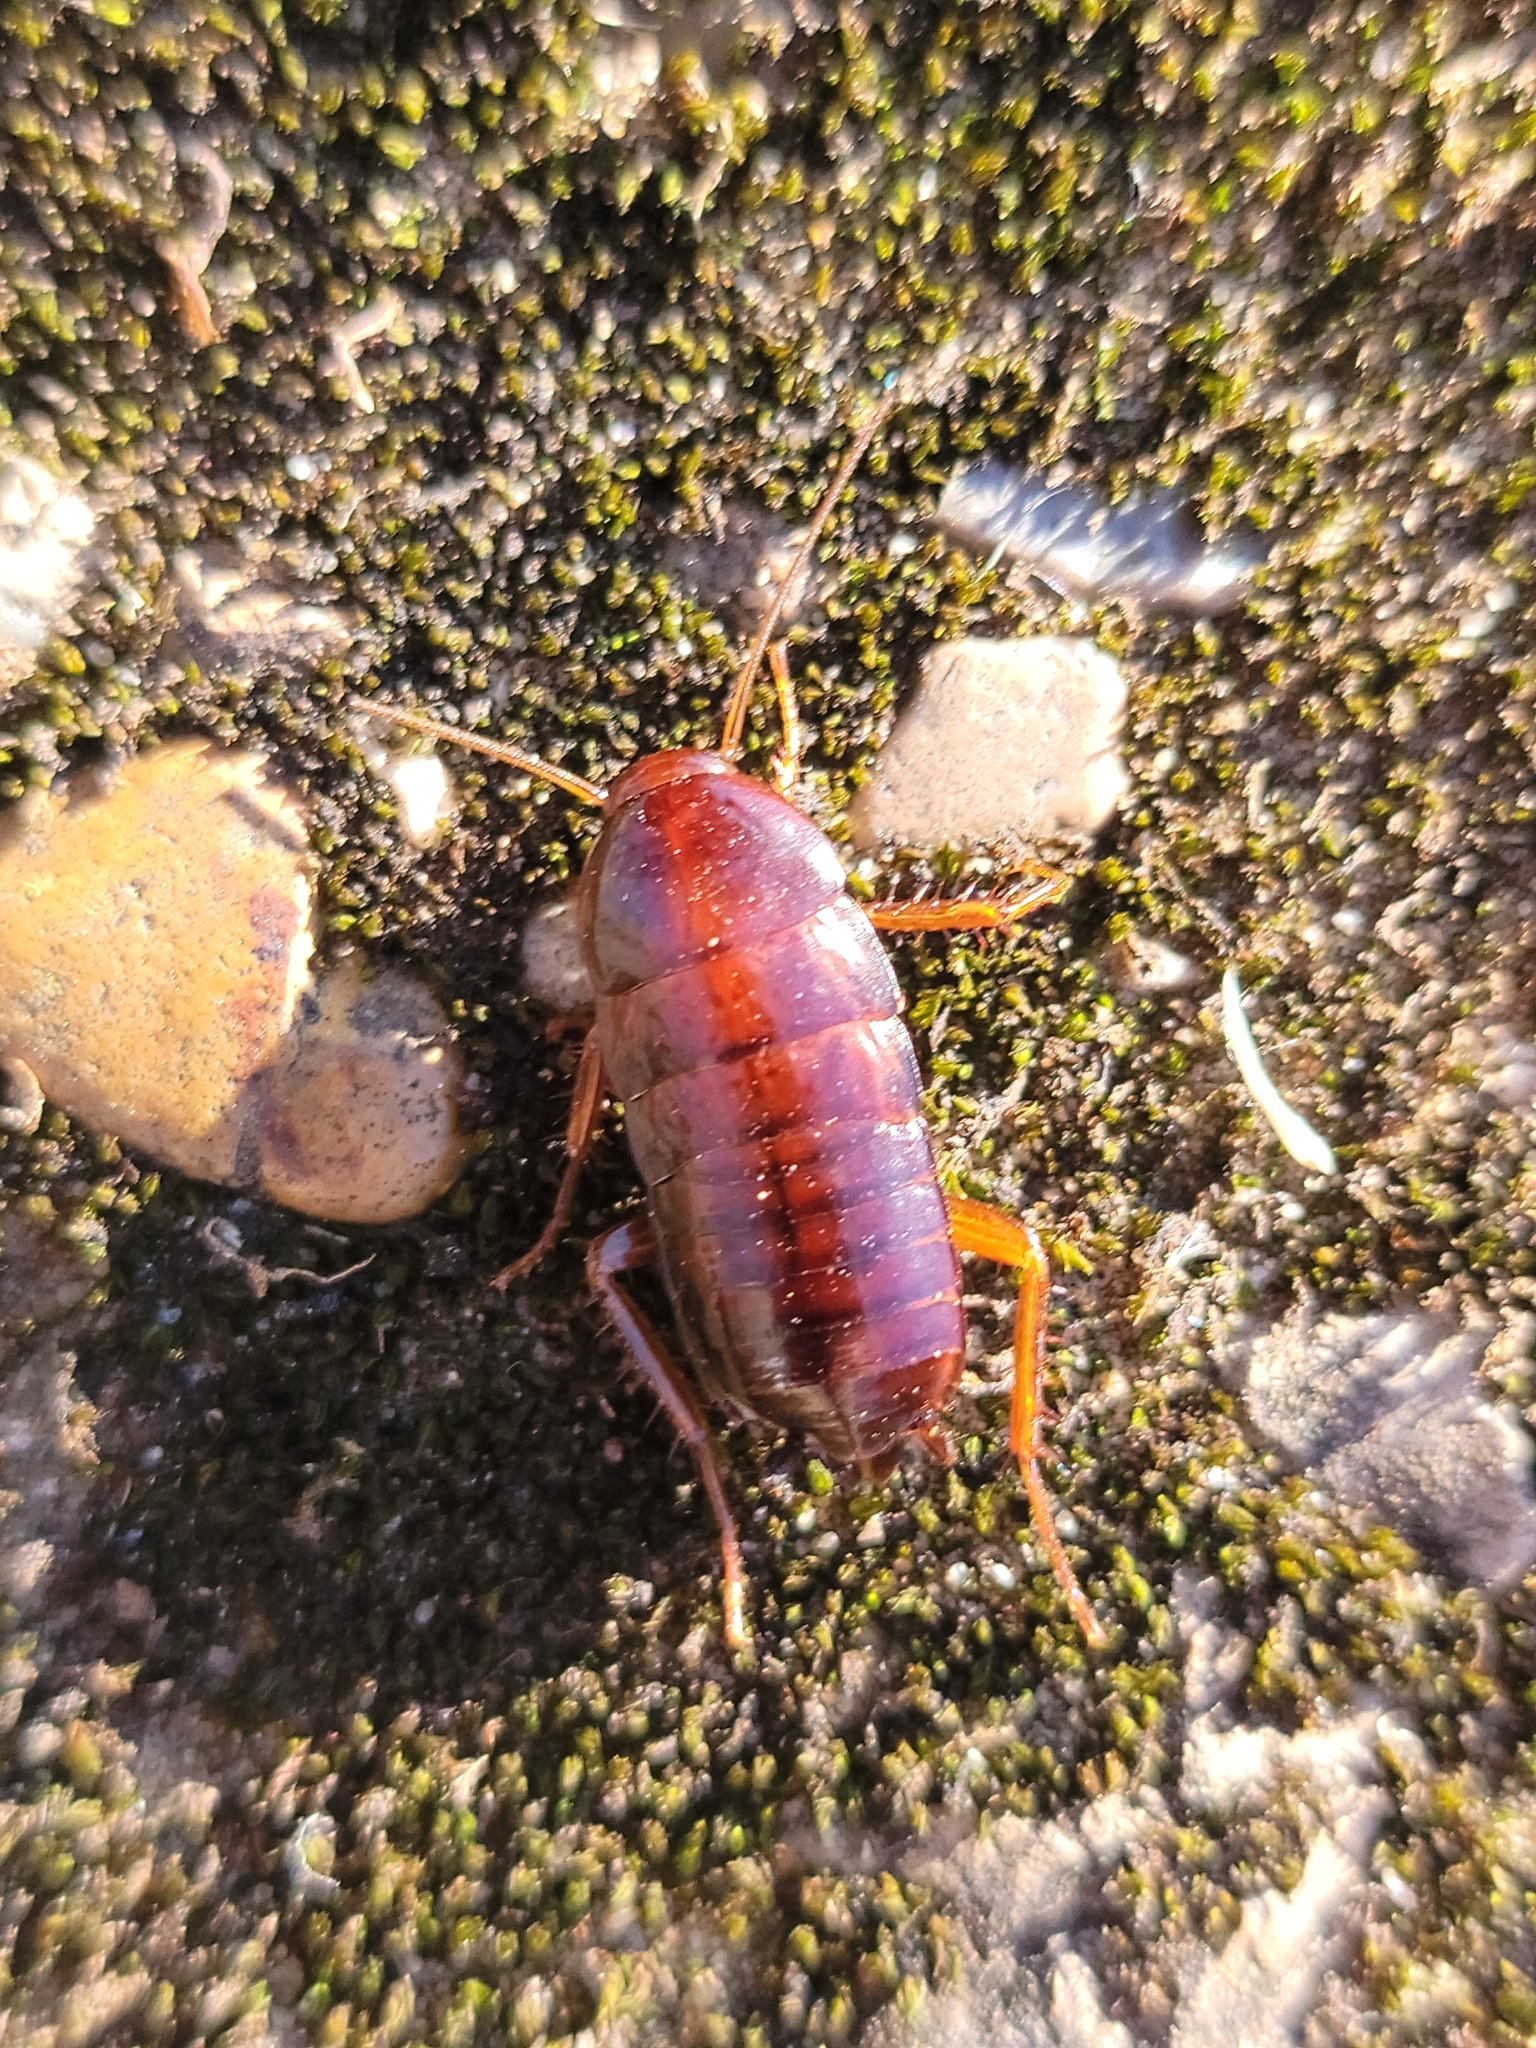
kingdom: Animalia
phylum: Arthropoda
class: Insecta
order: Blattodea
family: Blattidae
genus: Periplaneta
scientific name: Periplaneta fuliginosa
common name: Smokeybrown cockroad
